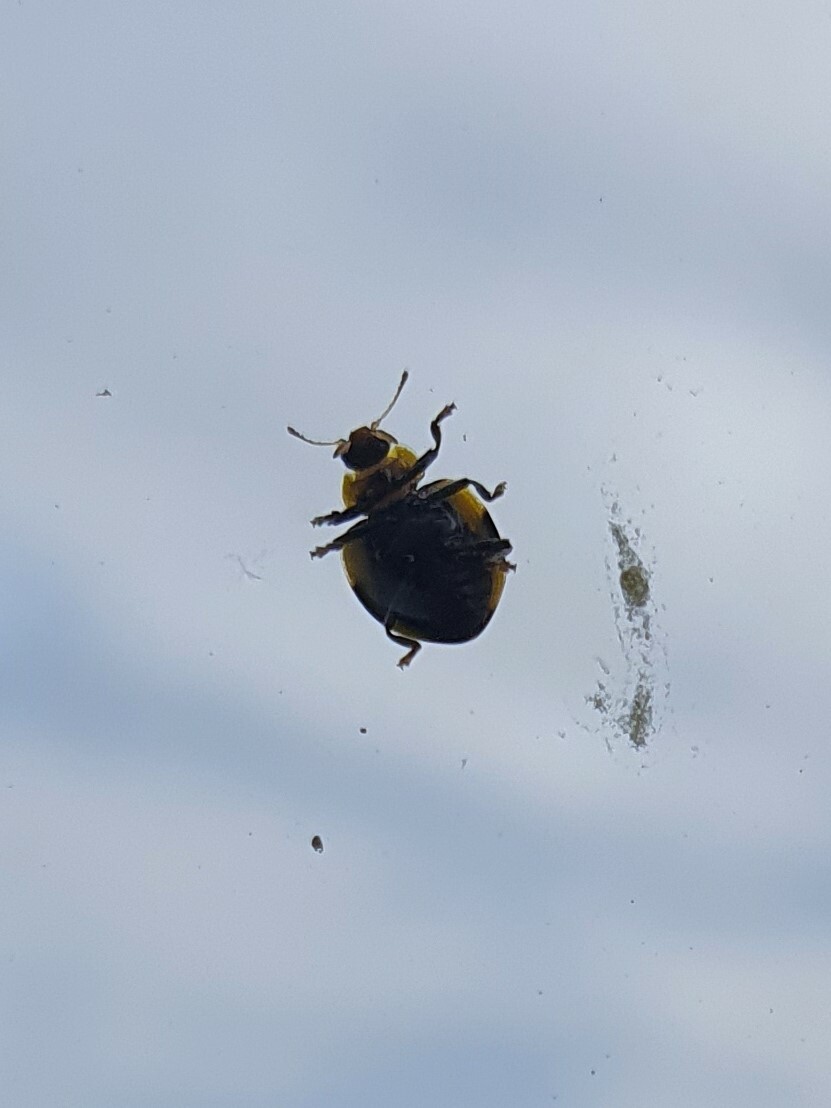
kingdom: Animalia
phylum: Arthropoda
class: Insecta
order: Coleoptera
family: Coccinellidae
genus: Illeis
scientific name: Illeis galbula
